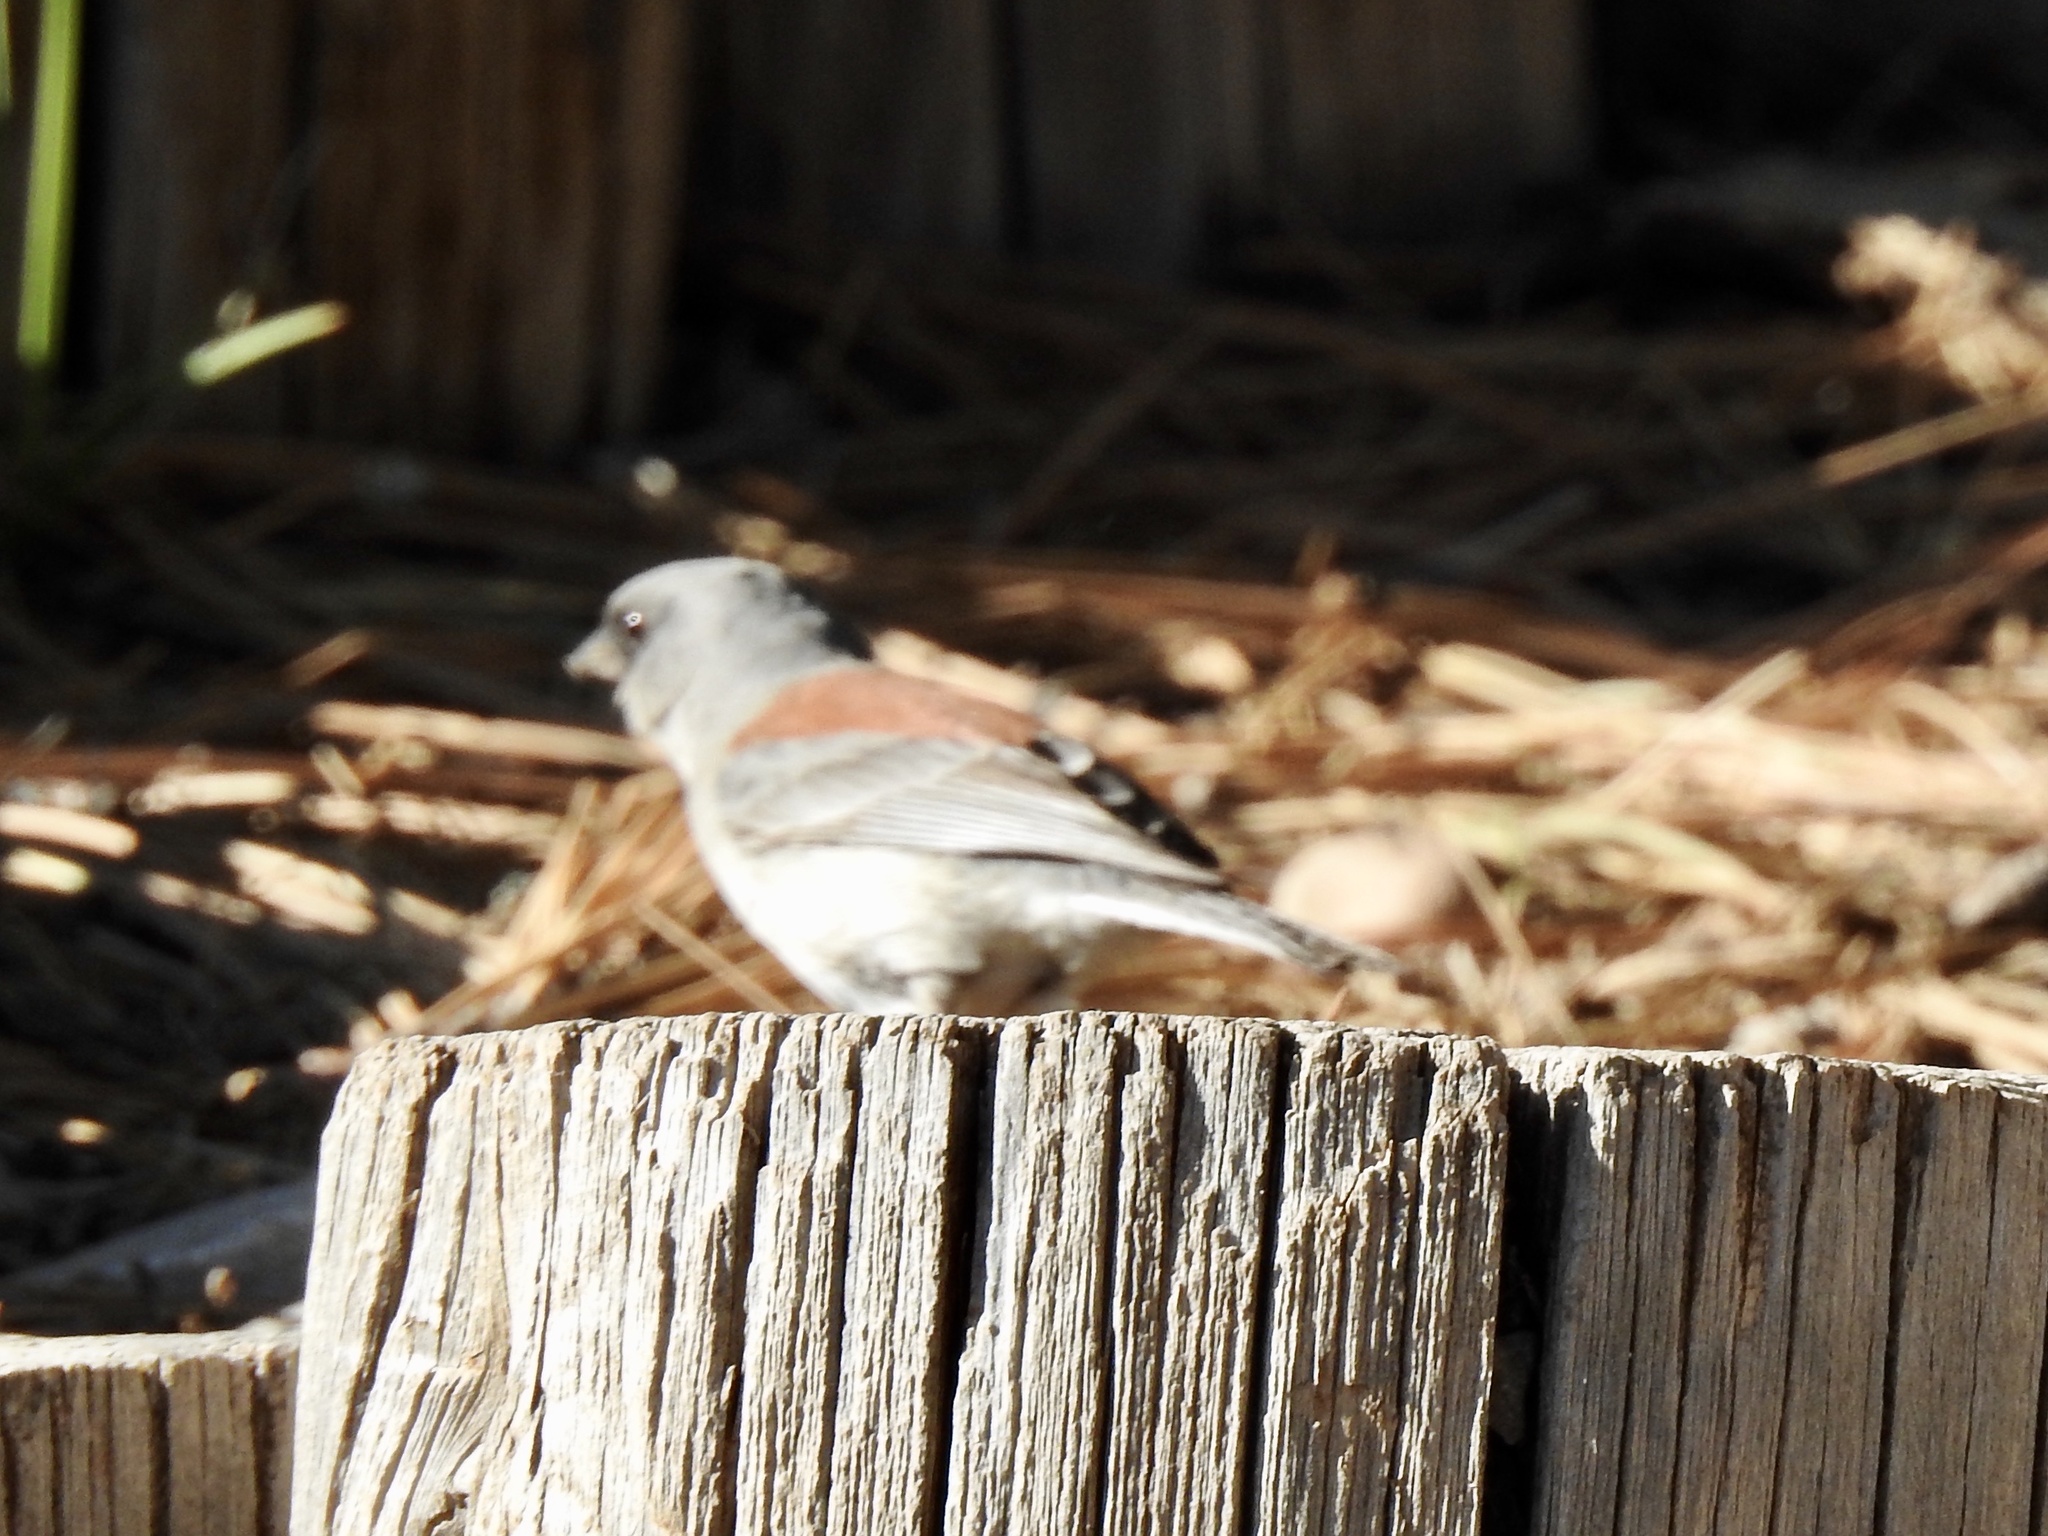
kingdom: Animalia
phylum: Chordata
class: Aves
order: Passeriformes
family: Passerellidae
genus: Junco
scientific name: Junco hyemalis
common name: Dark-eyed junco
